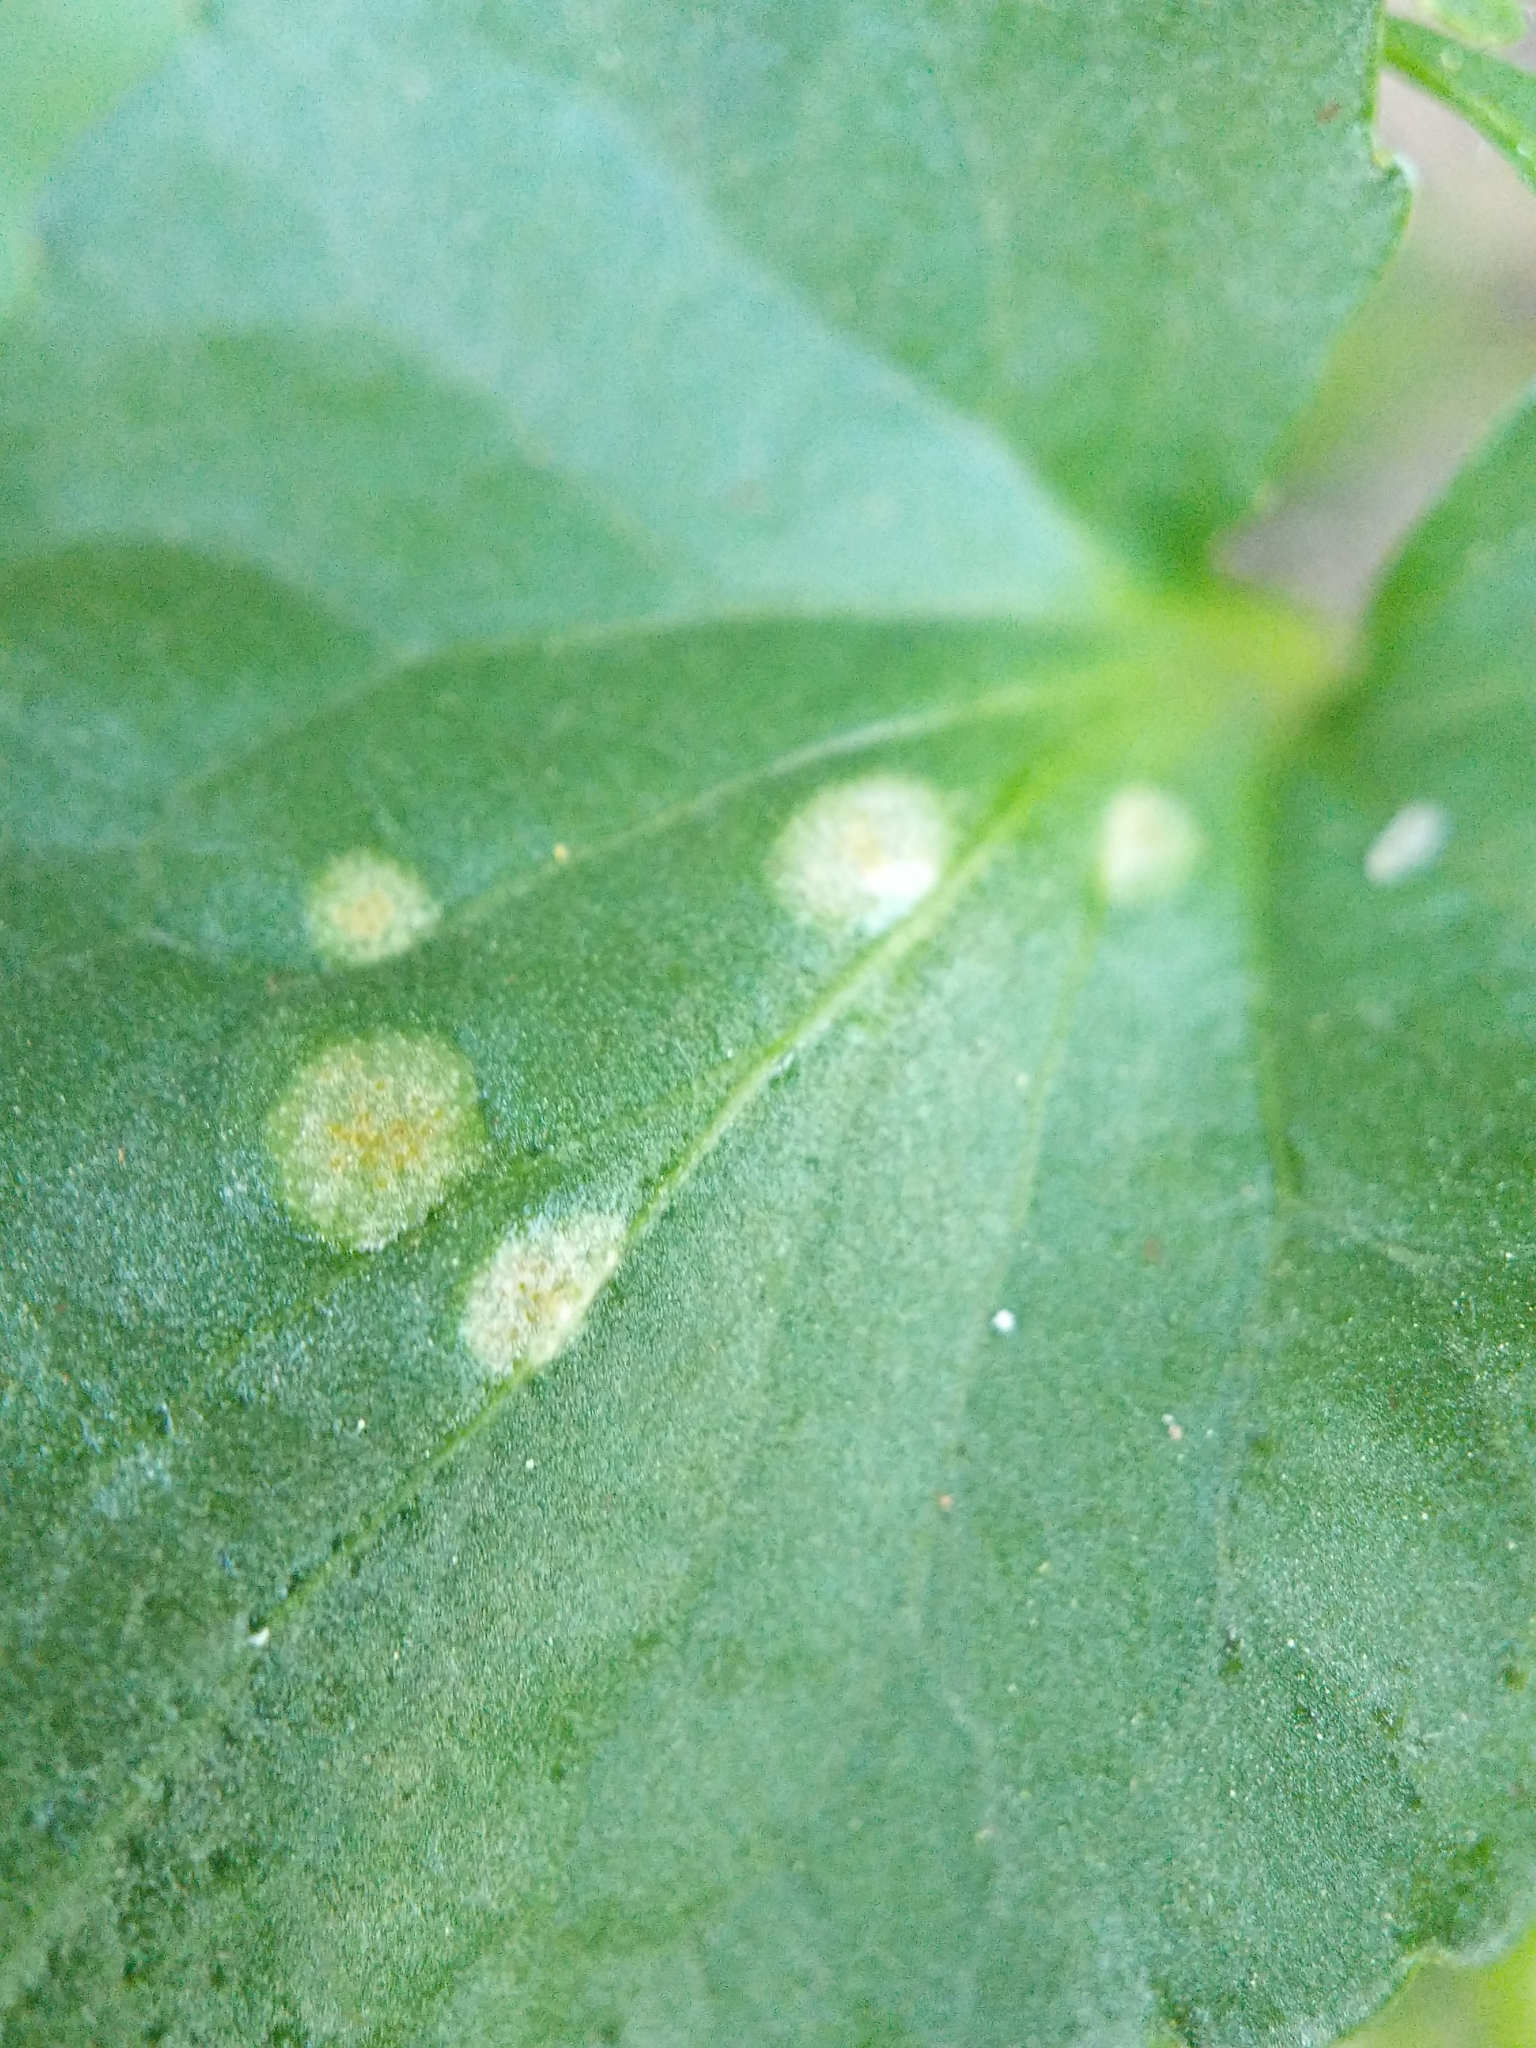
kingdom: Fungi
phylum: Basidiomycota
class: Pucciniomycetes
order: Pucciniales
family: Pucciniaceae
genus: Puccinia
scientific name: Puccinia violae
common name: Violet rust
